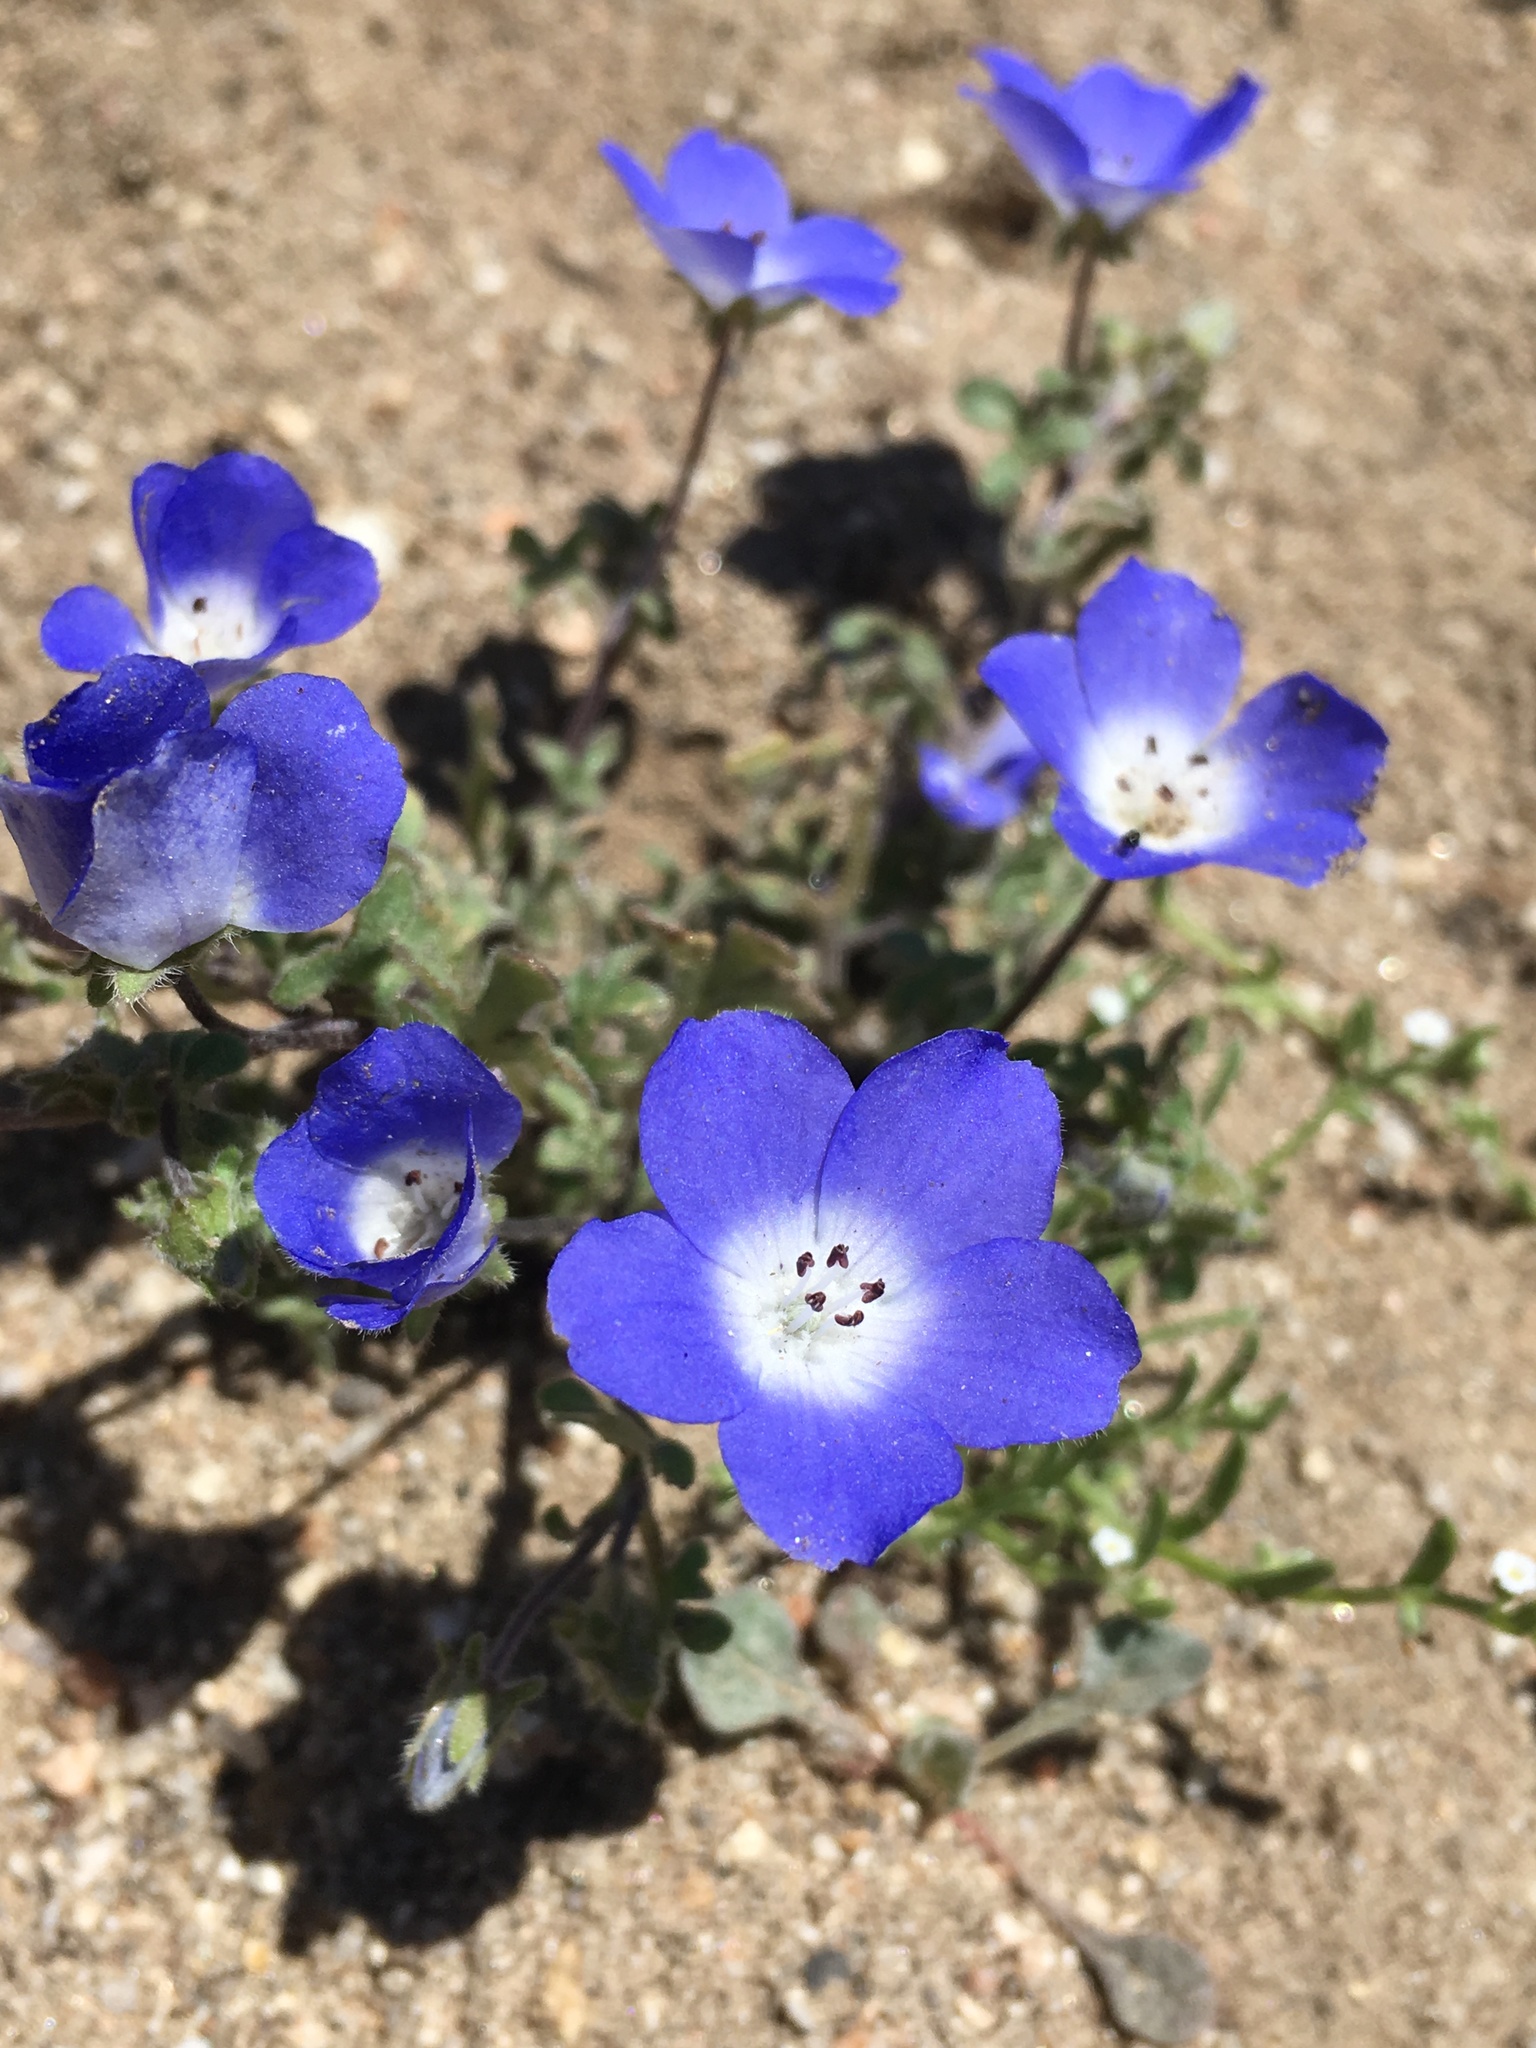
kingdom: Plantae
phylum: Tracheophyta
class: Magnoliopsida
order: Boraginales
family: Hydrophyllaceae
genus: Nemophila
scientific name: Nemophila menziesii
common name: Baby's-blue-eyes
